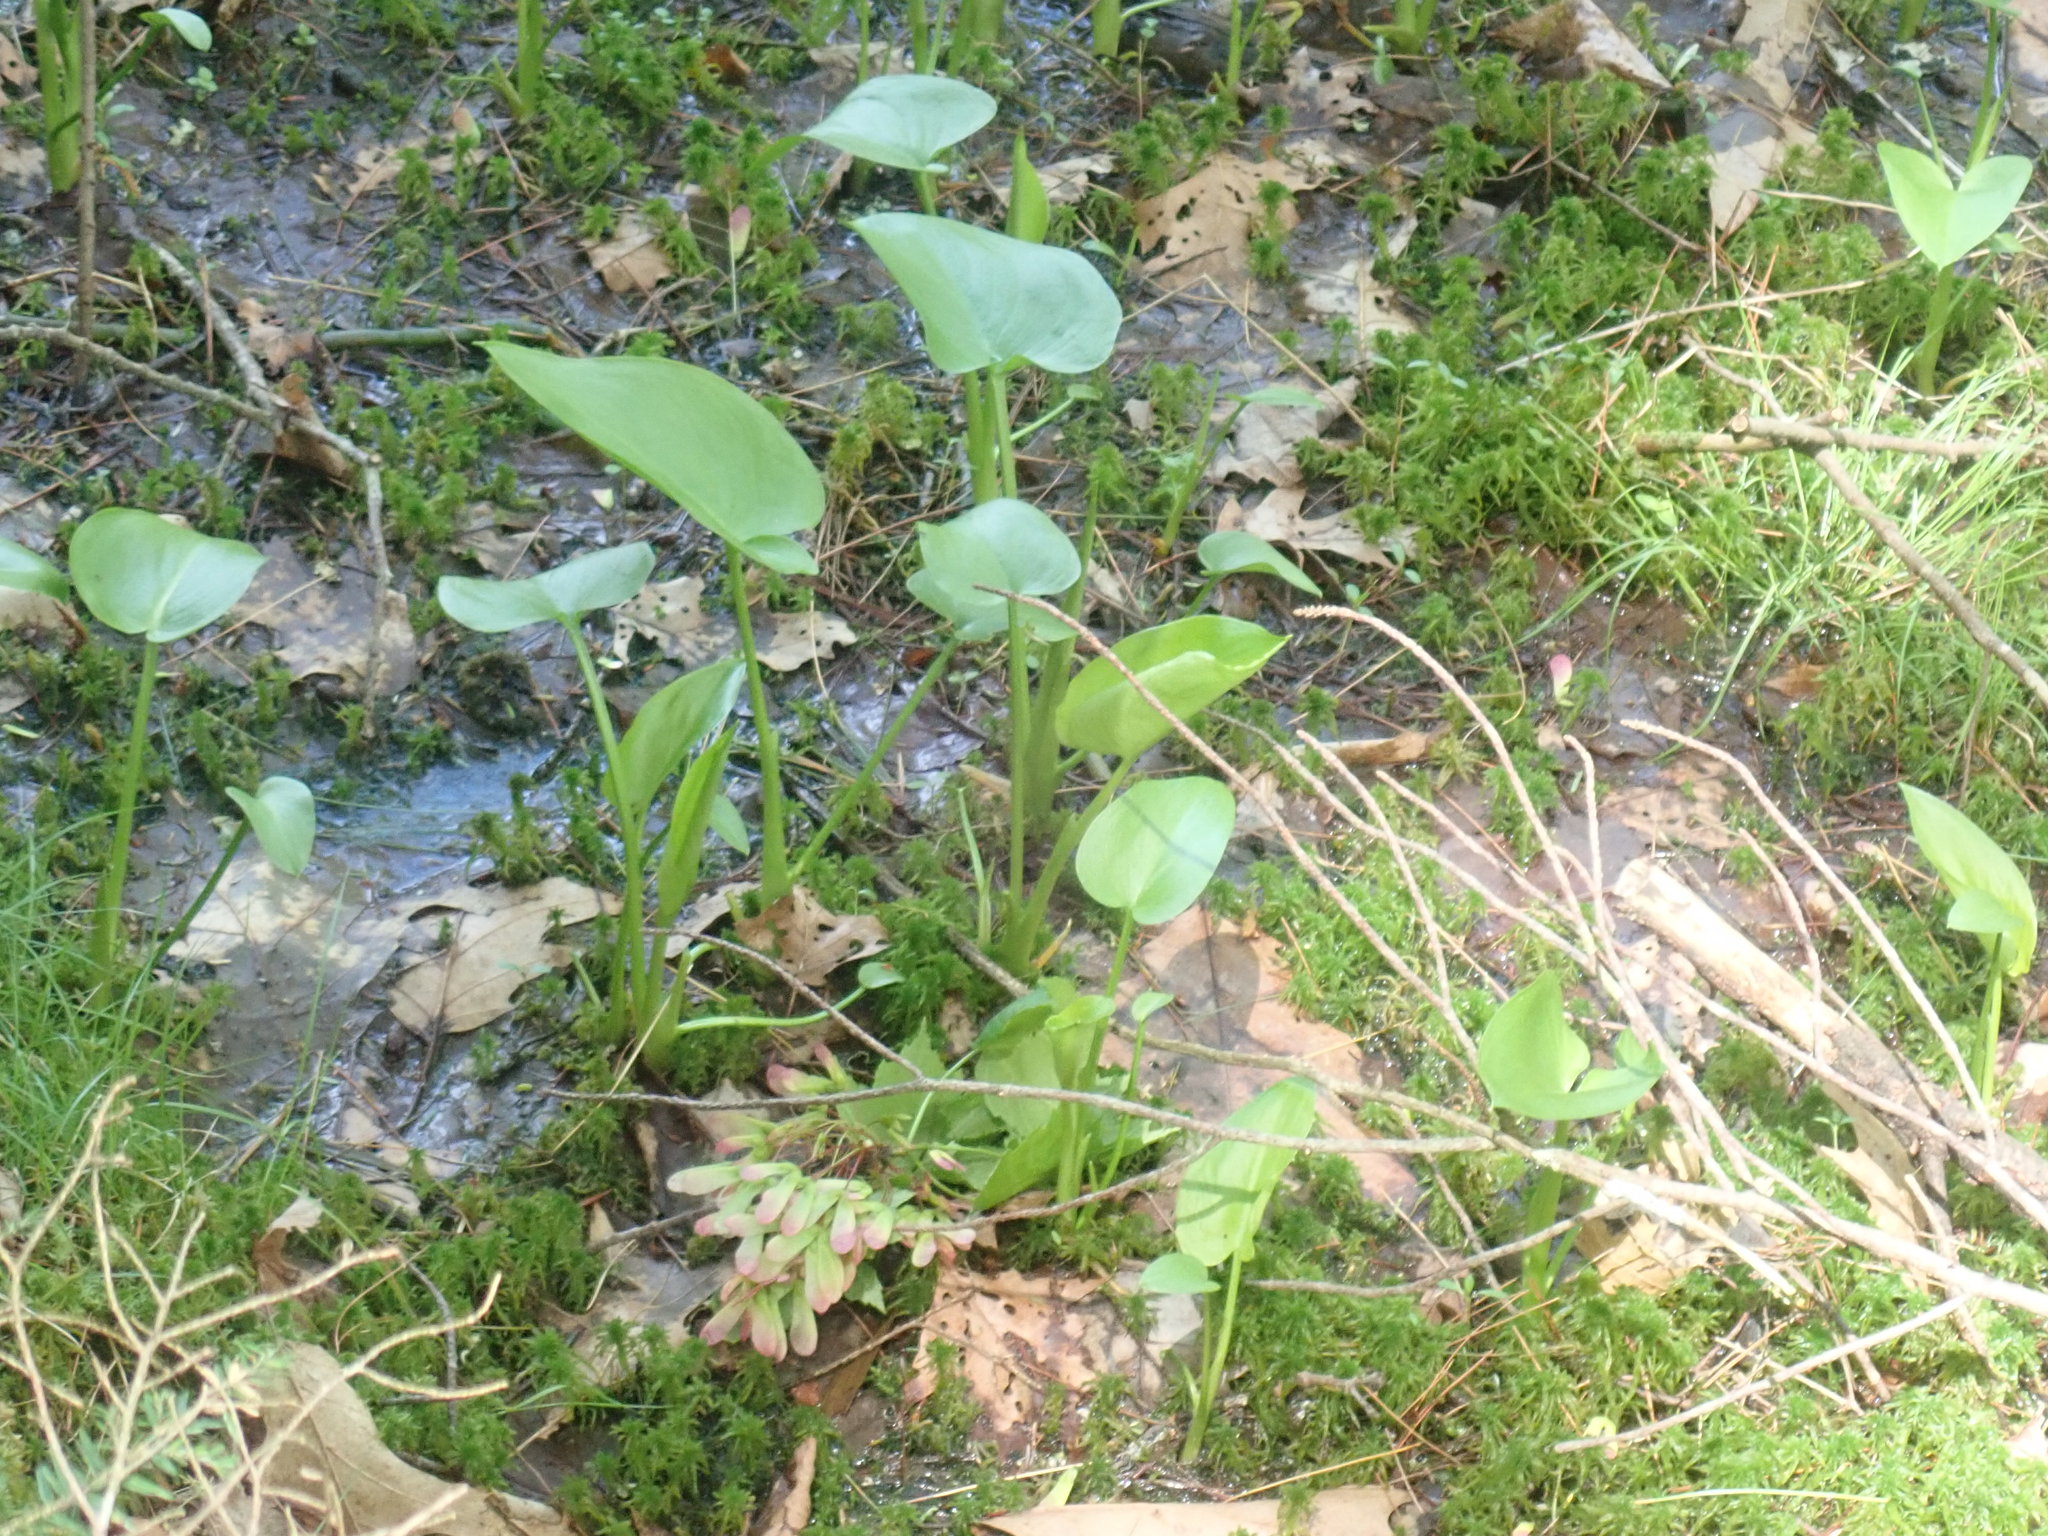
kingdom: Plantae
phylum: Tracheophyta
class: Liliopsida
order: Alismatales
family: Araceae
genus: Calla
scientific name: Calla palustris
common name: Bog arum
